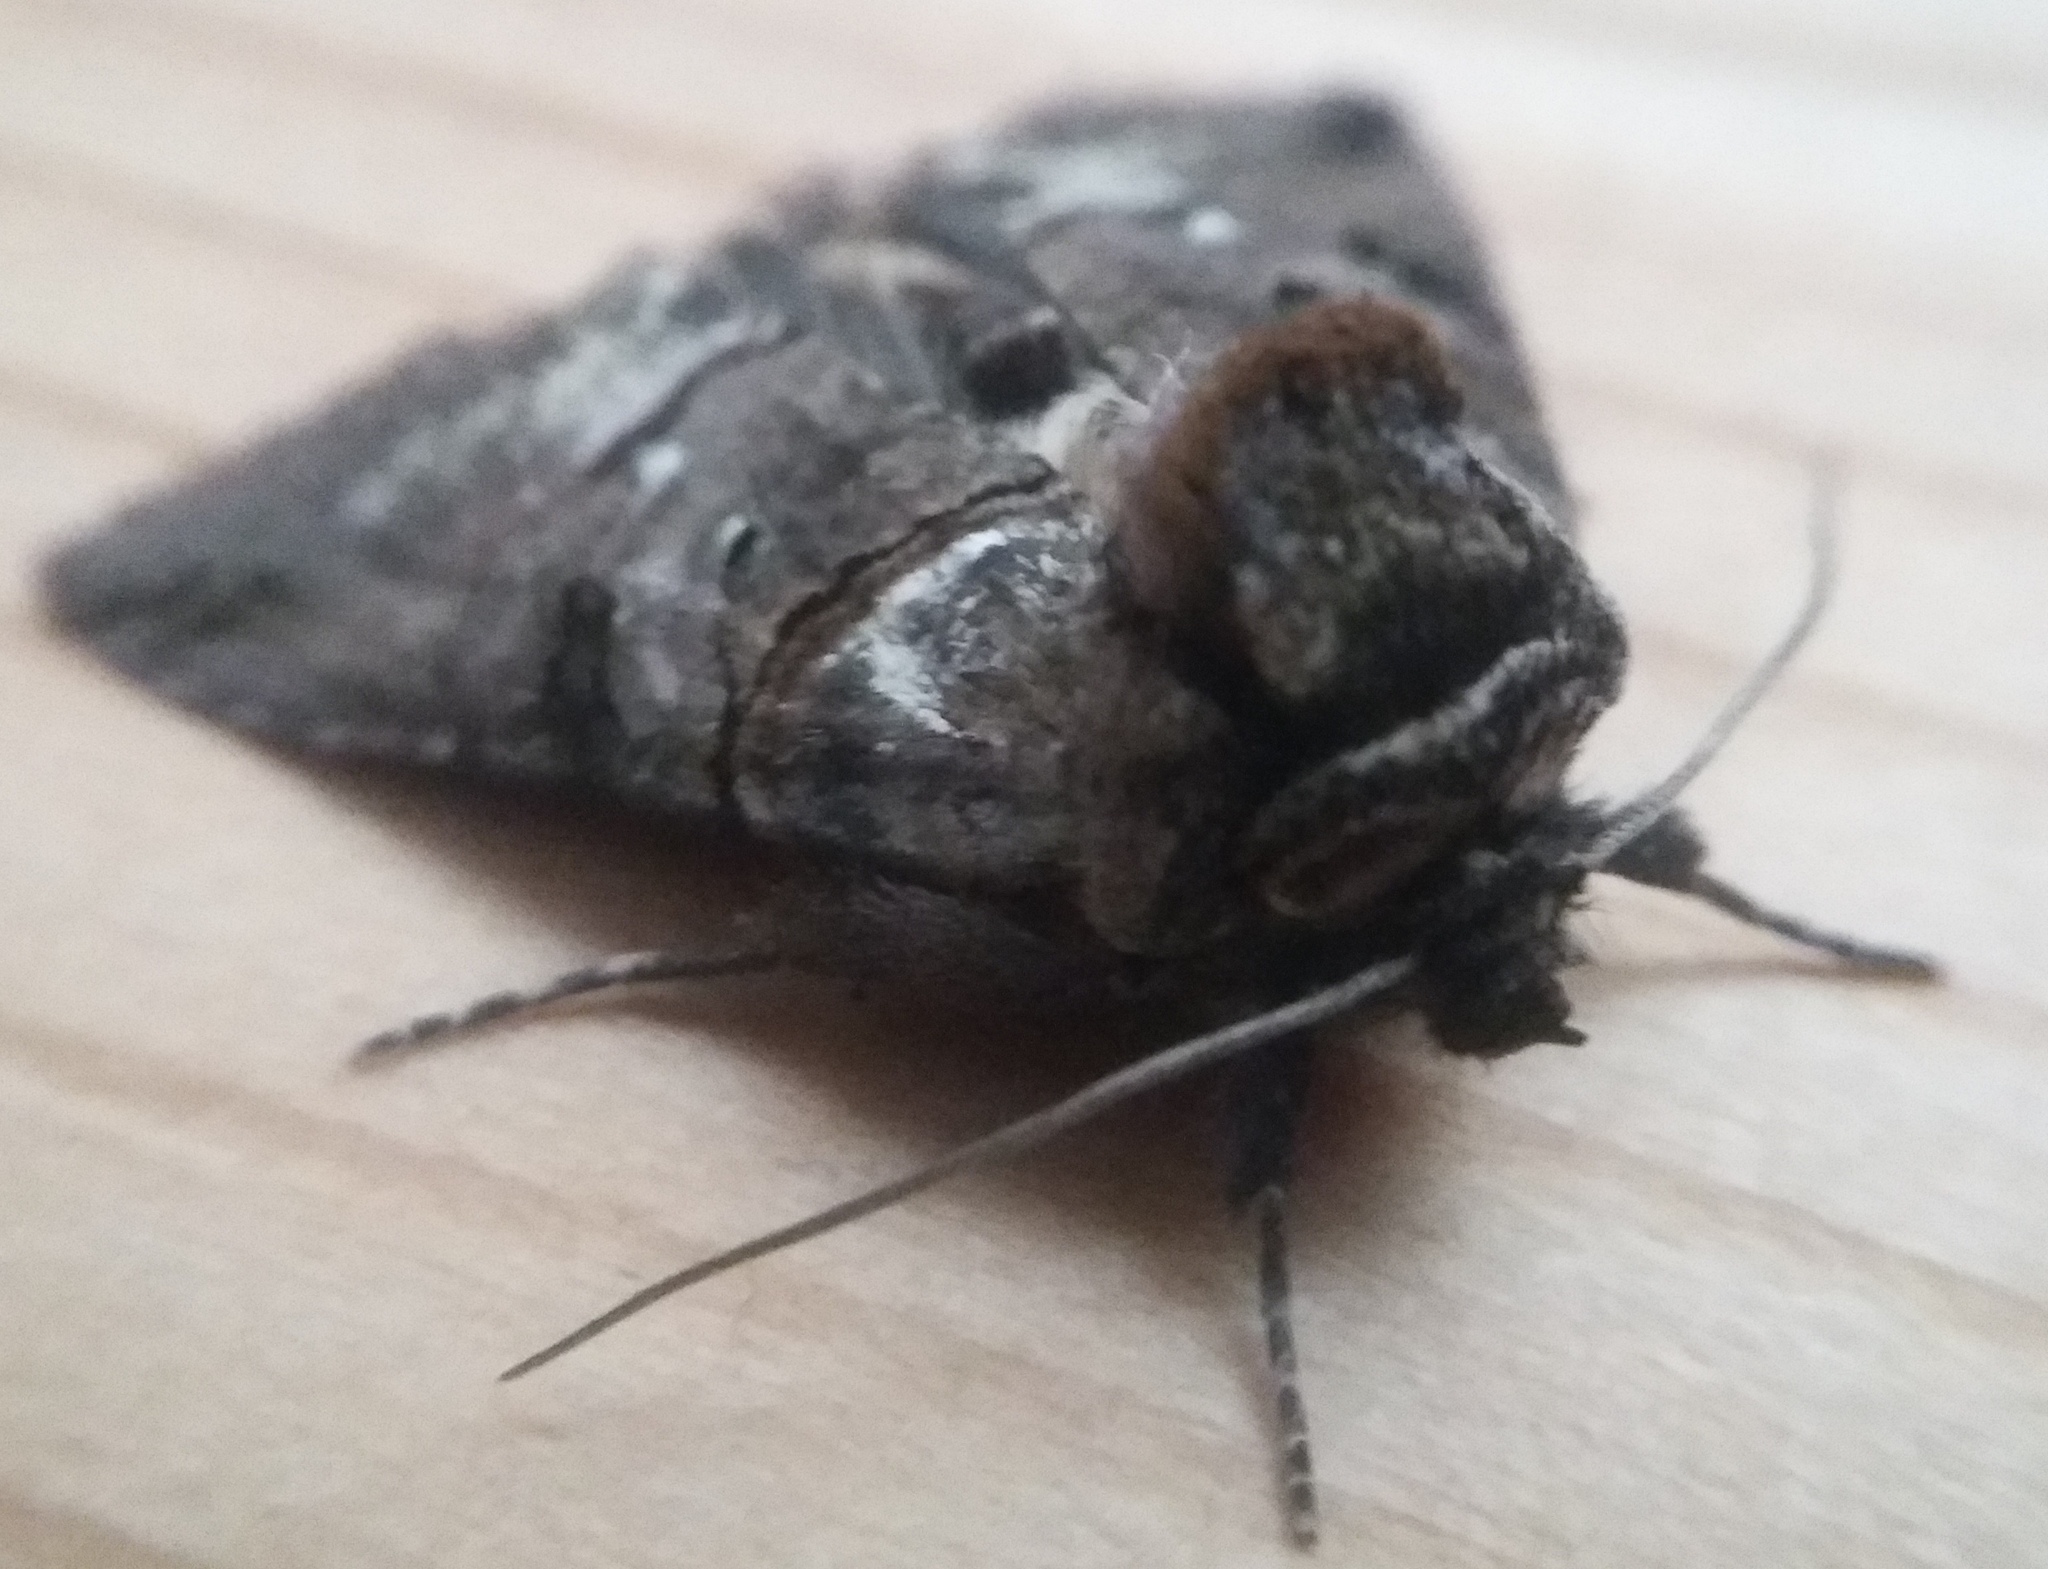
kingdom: Animalia
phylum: Arthropoda
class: Insecta
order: Lepidoptera
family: Noctuidae
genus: Abrostola
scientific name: Abrostola tripartita
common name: Spectacle
